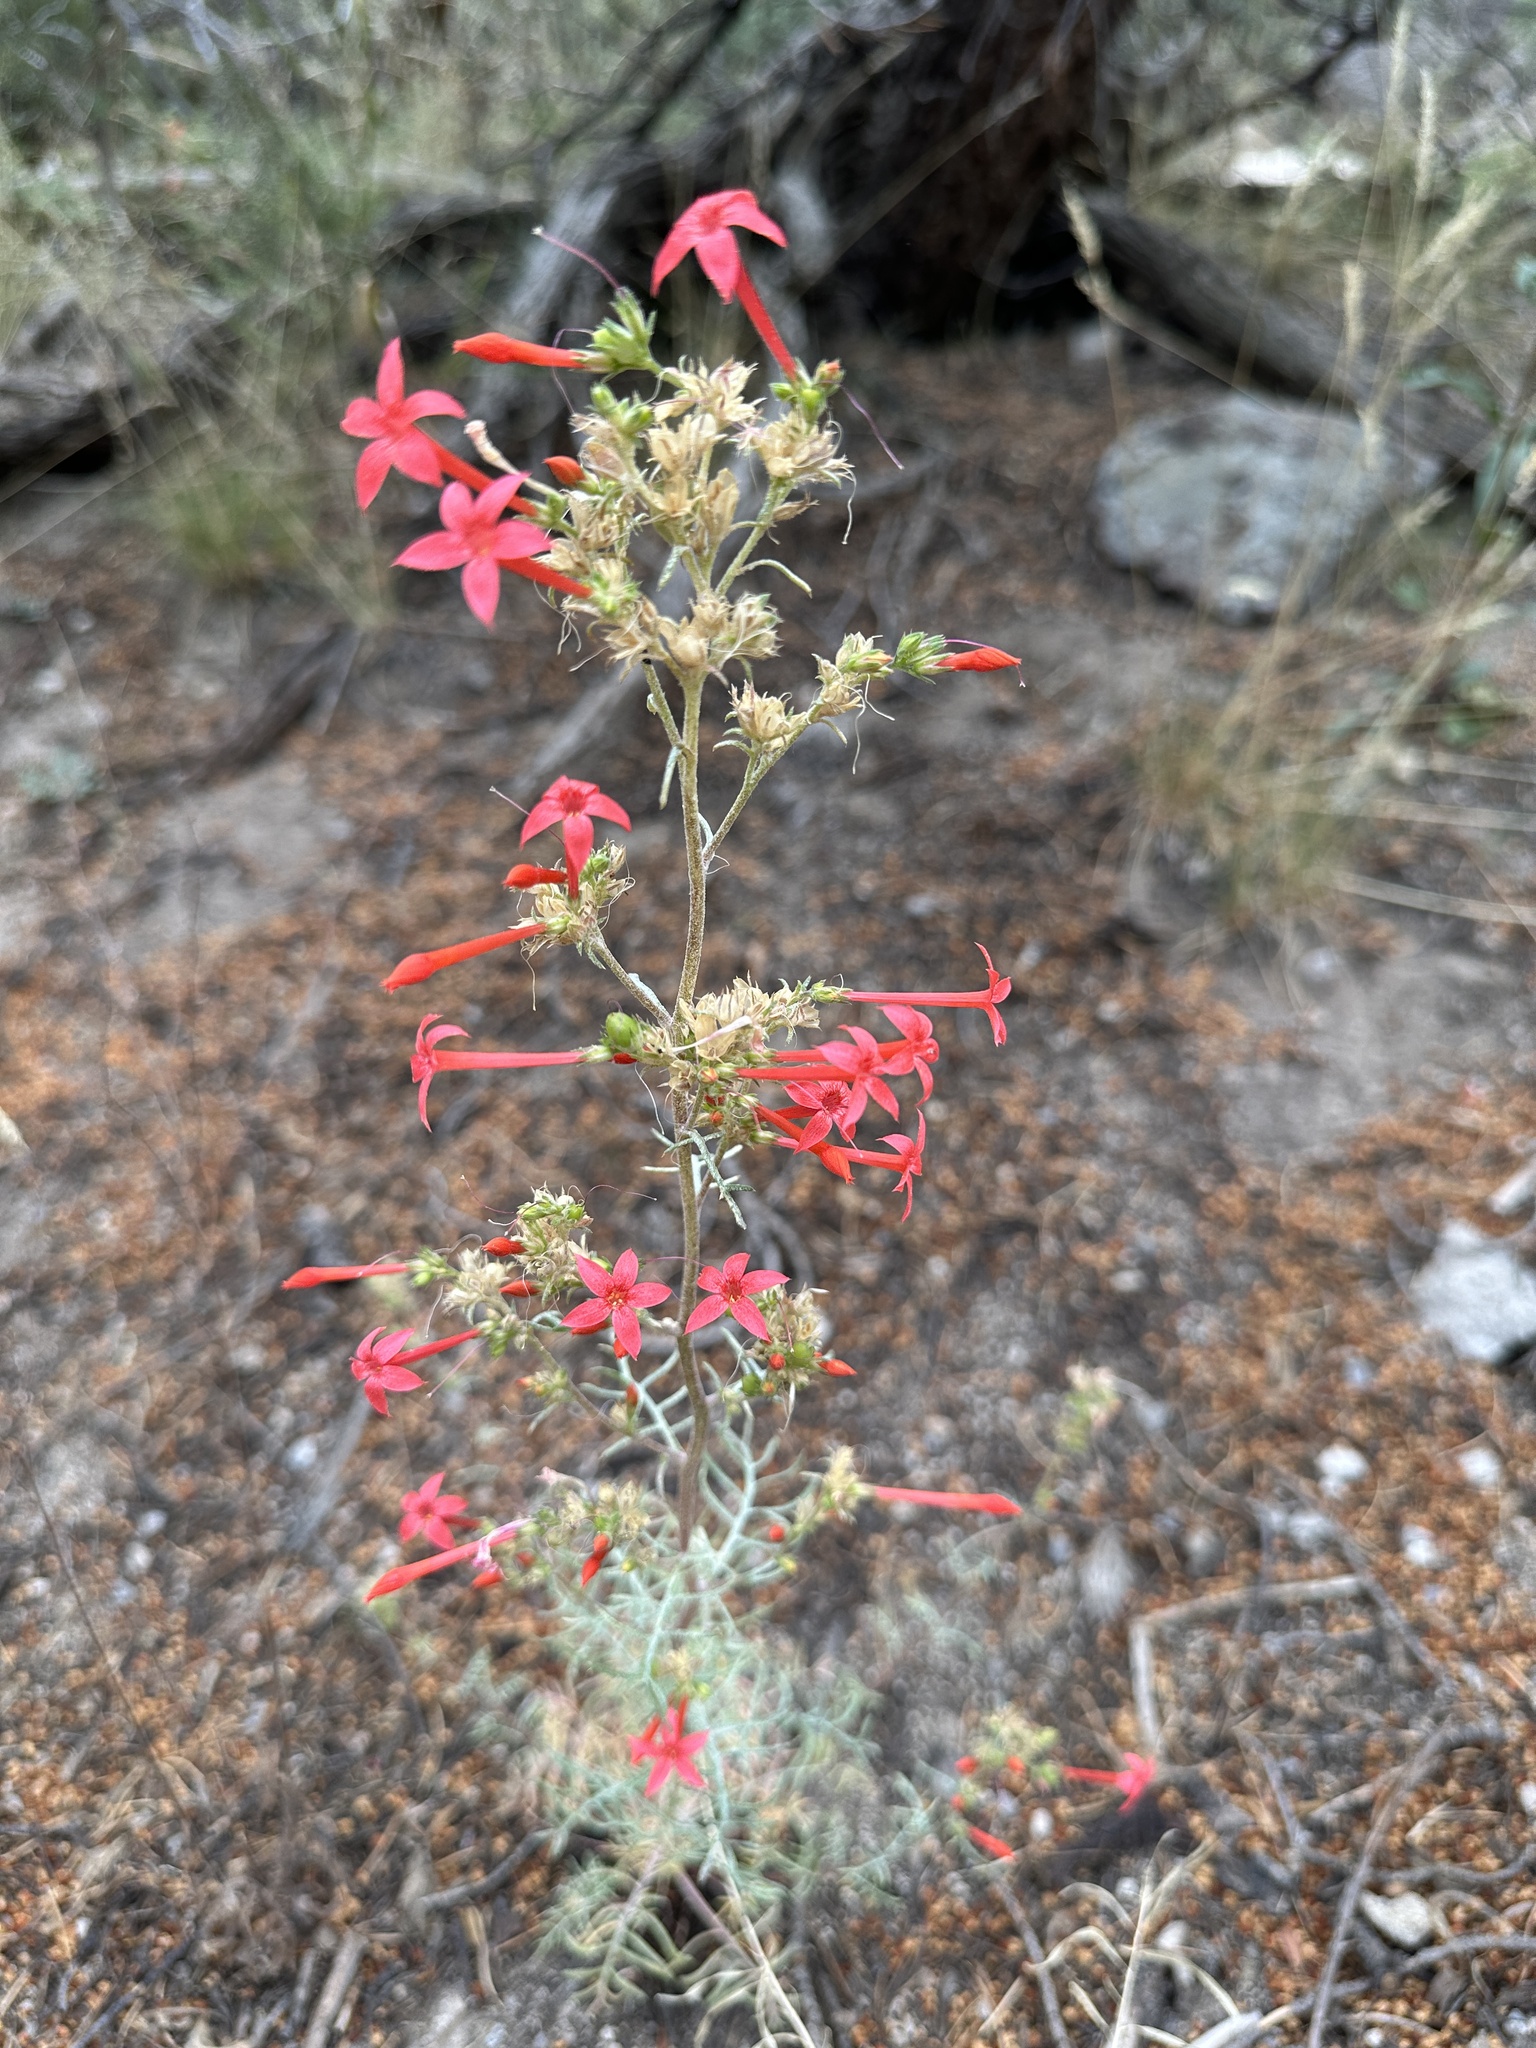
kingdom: Plantae
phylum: Tracheophyta
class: Magnoliopsida
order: Ericales
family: Polemoniaceae
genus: Ipomopsis
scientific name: Ipomopsis arizonica
